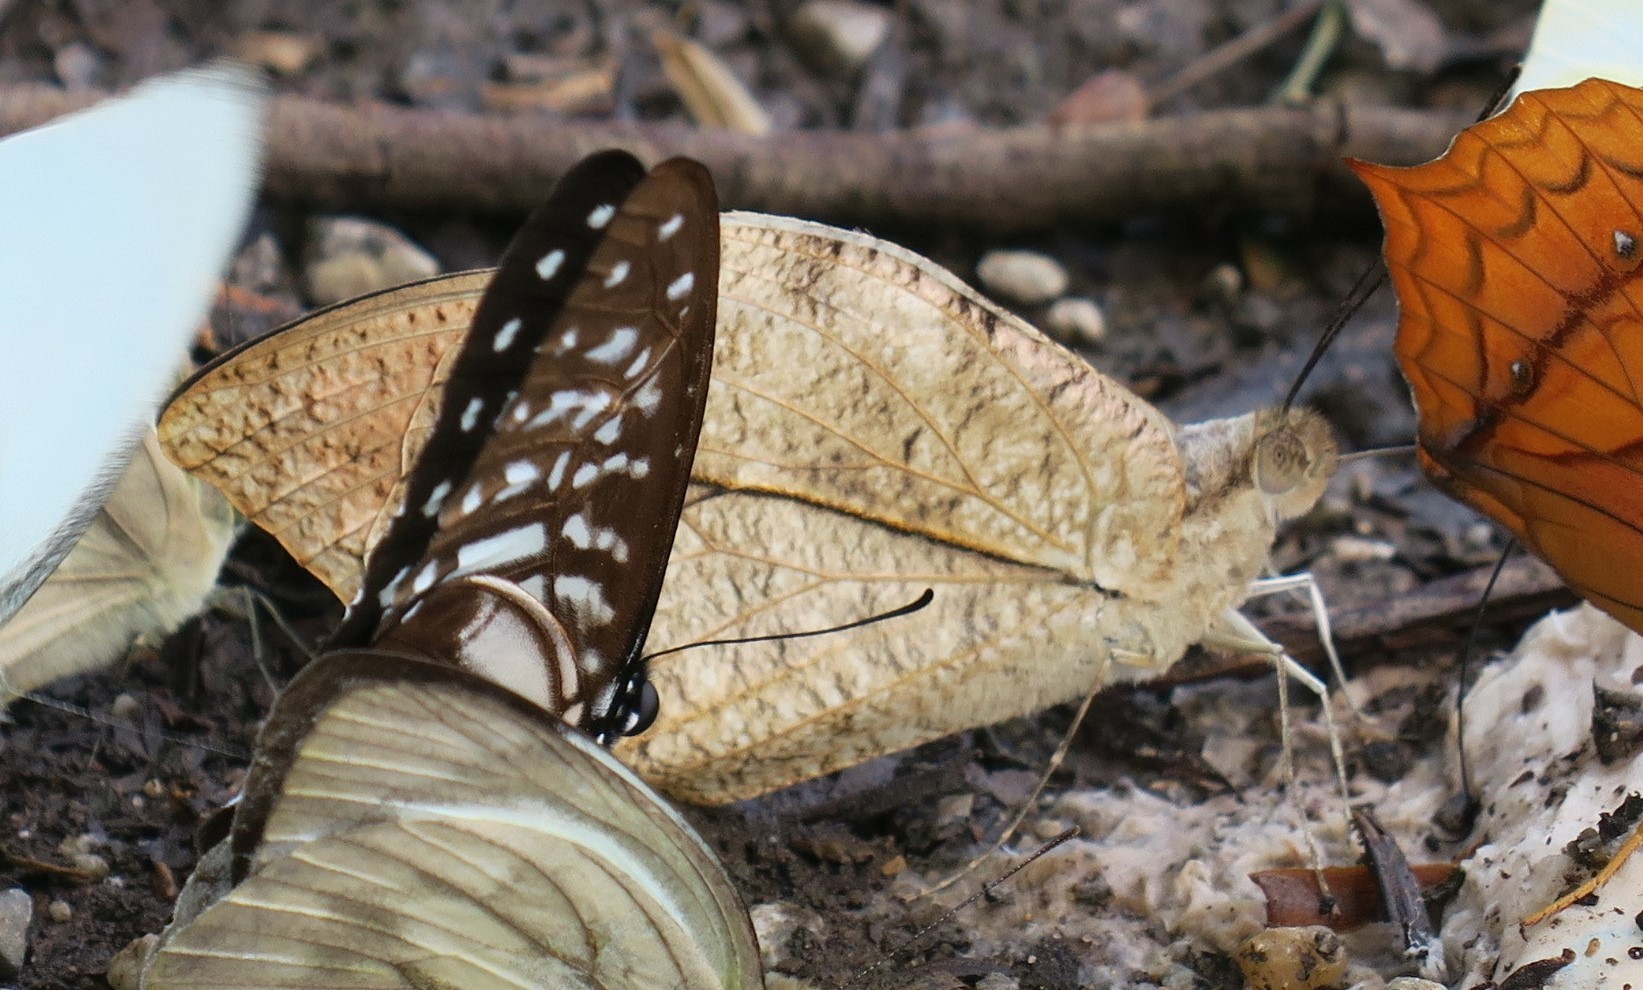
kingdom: Animalia
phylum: Arthropoda
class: Insecta
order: Lepidoptera
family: Pieridae
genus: Hebomoia
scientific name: Hebomoia glaucippe
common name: Great orange tip
